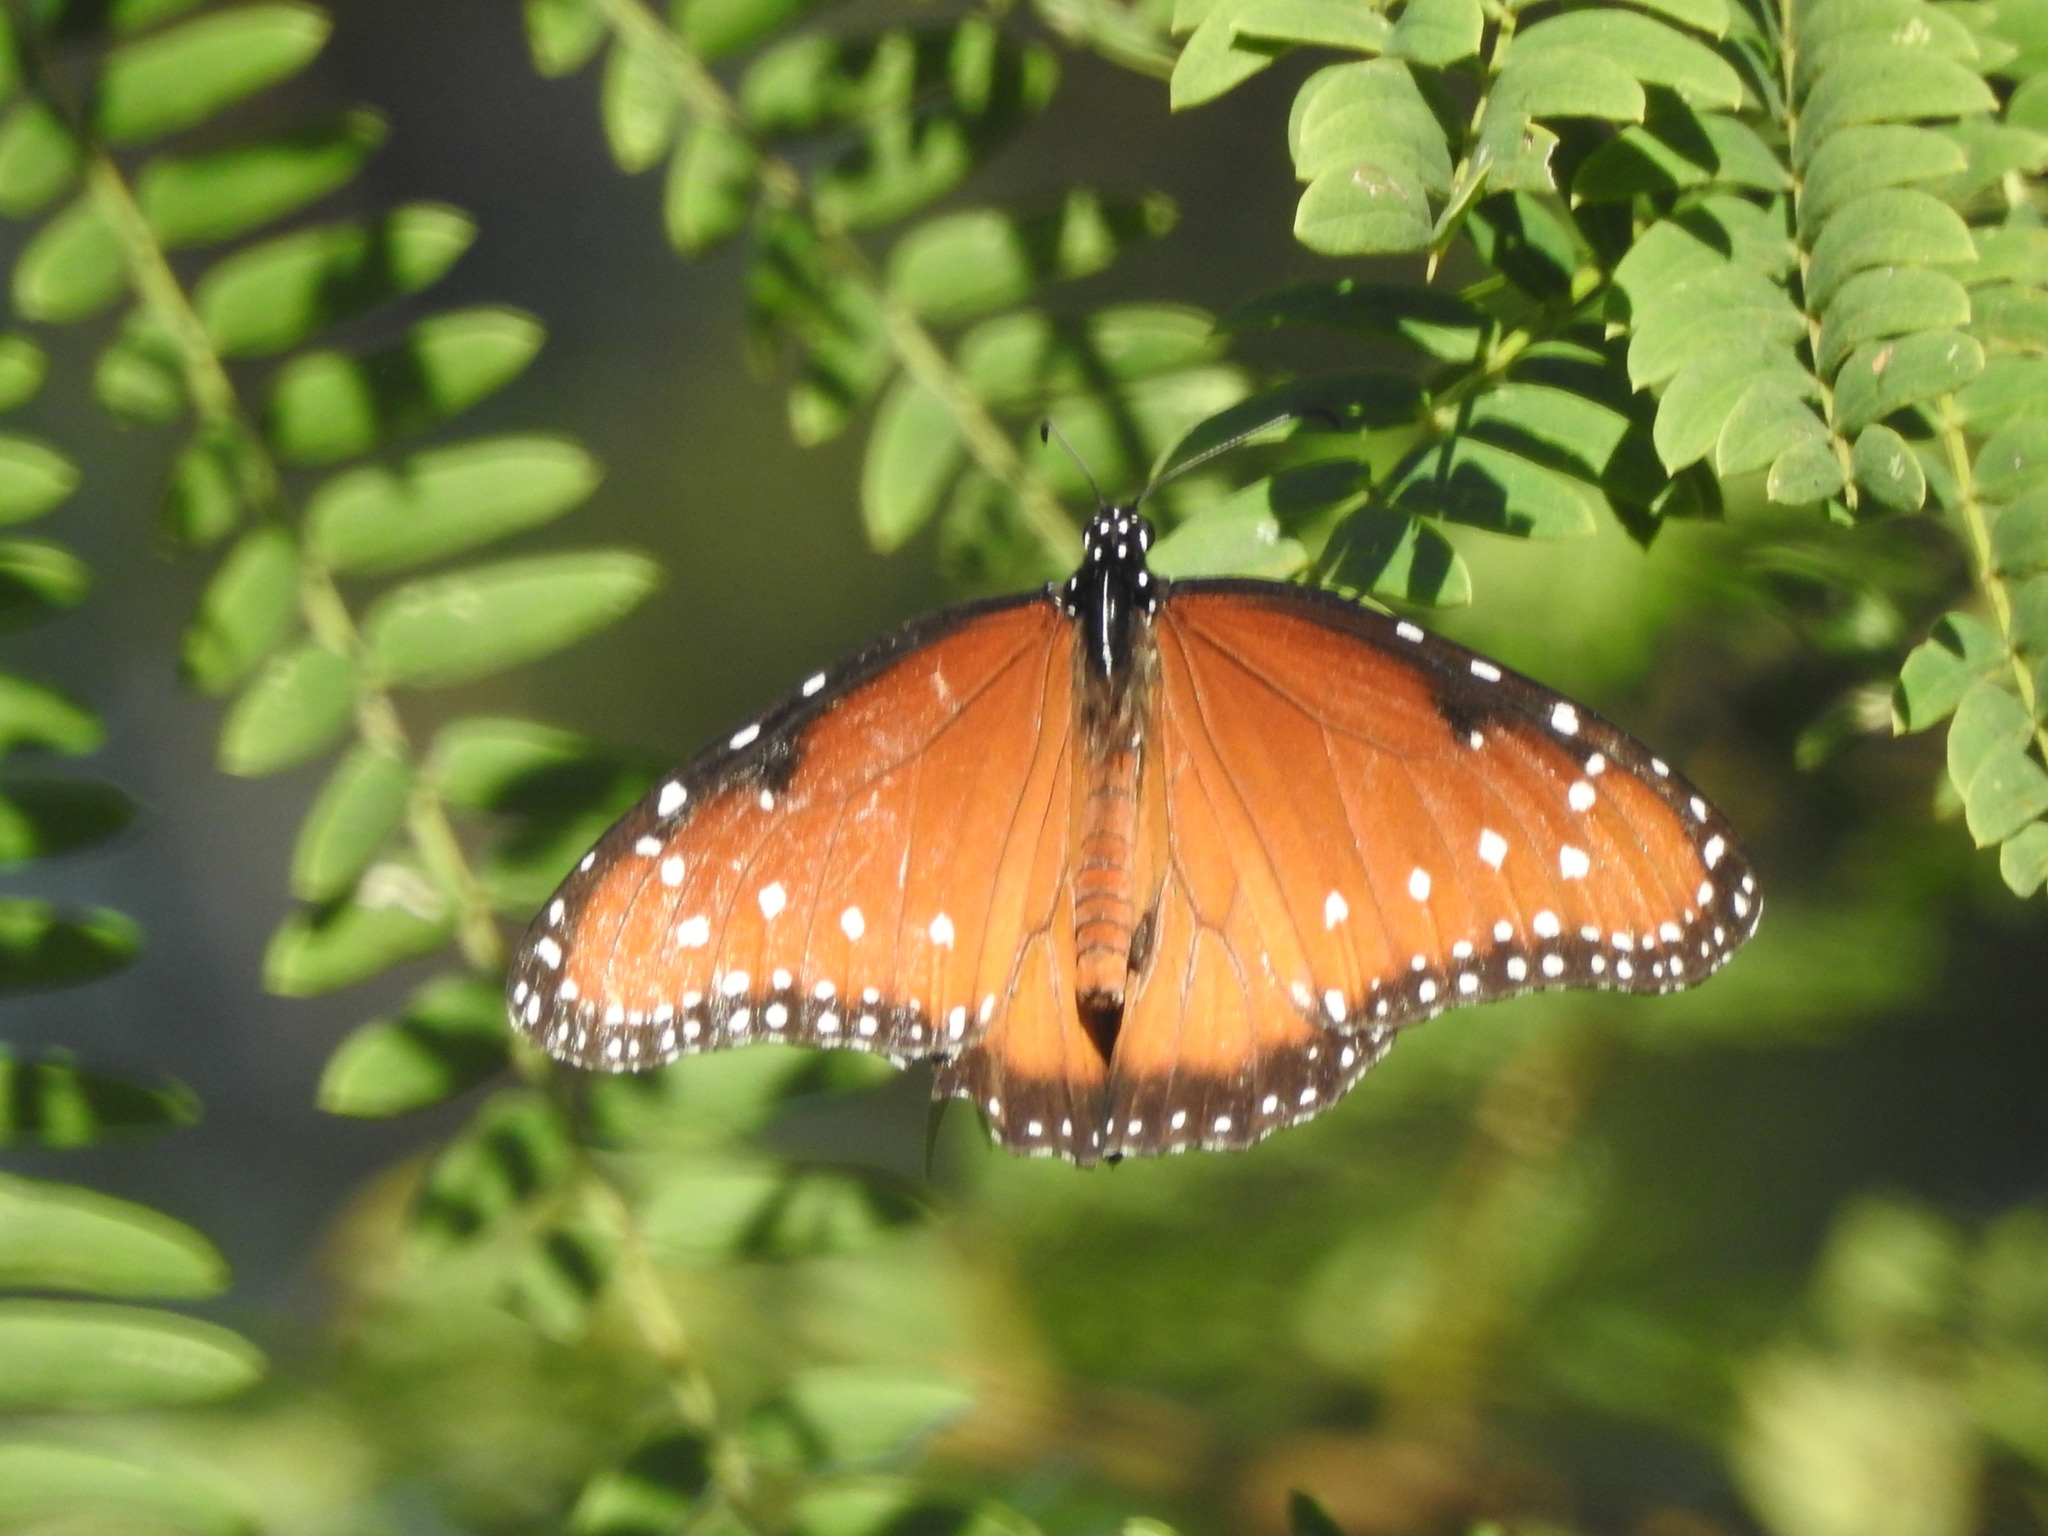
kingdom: Animalia
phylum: Arthropoda
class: Insecta
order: Lepidoptera
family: Nymphalidae
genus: Danaus
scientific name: Danaus gilippus
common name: Queen
